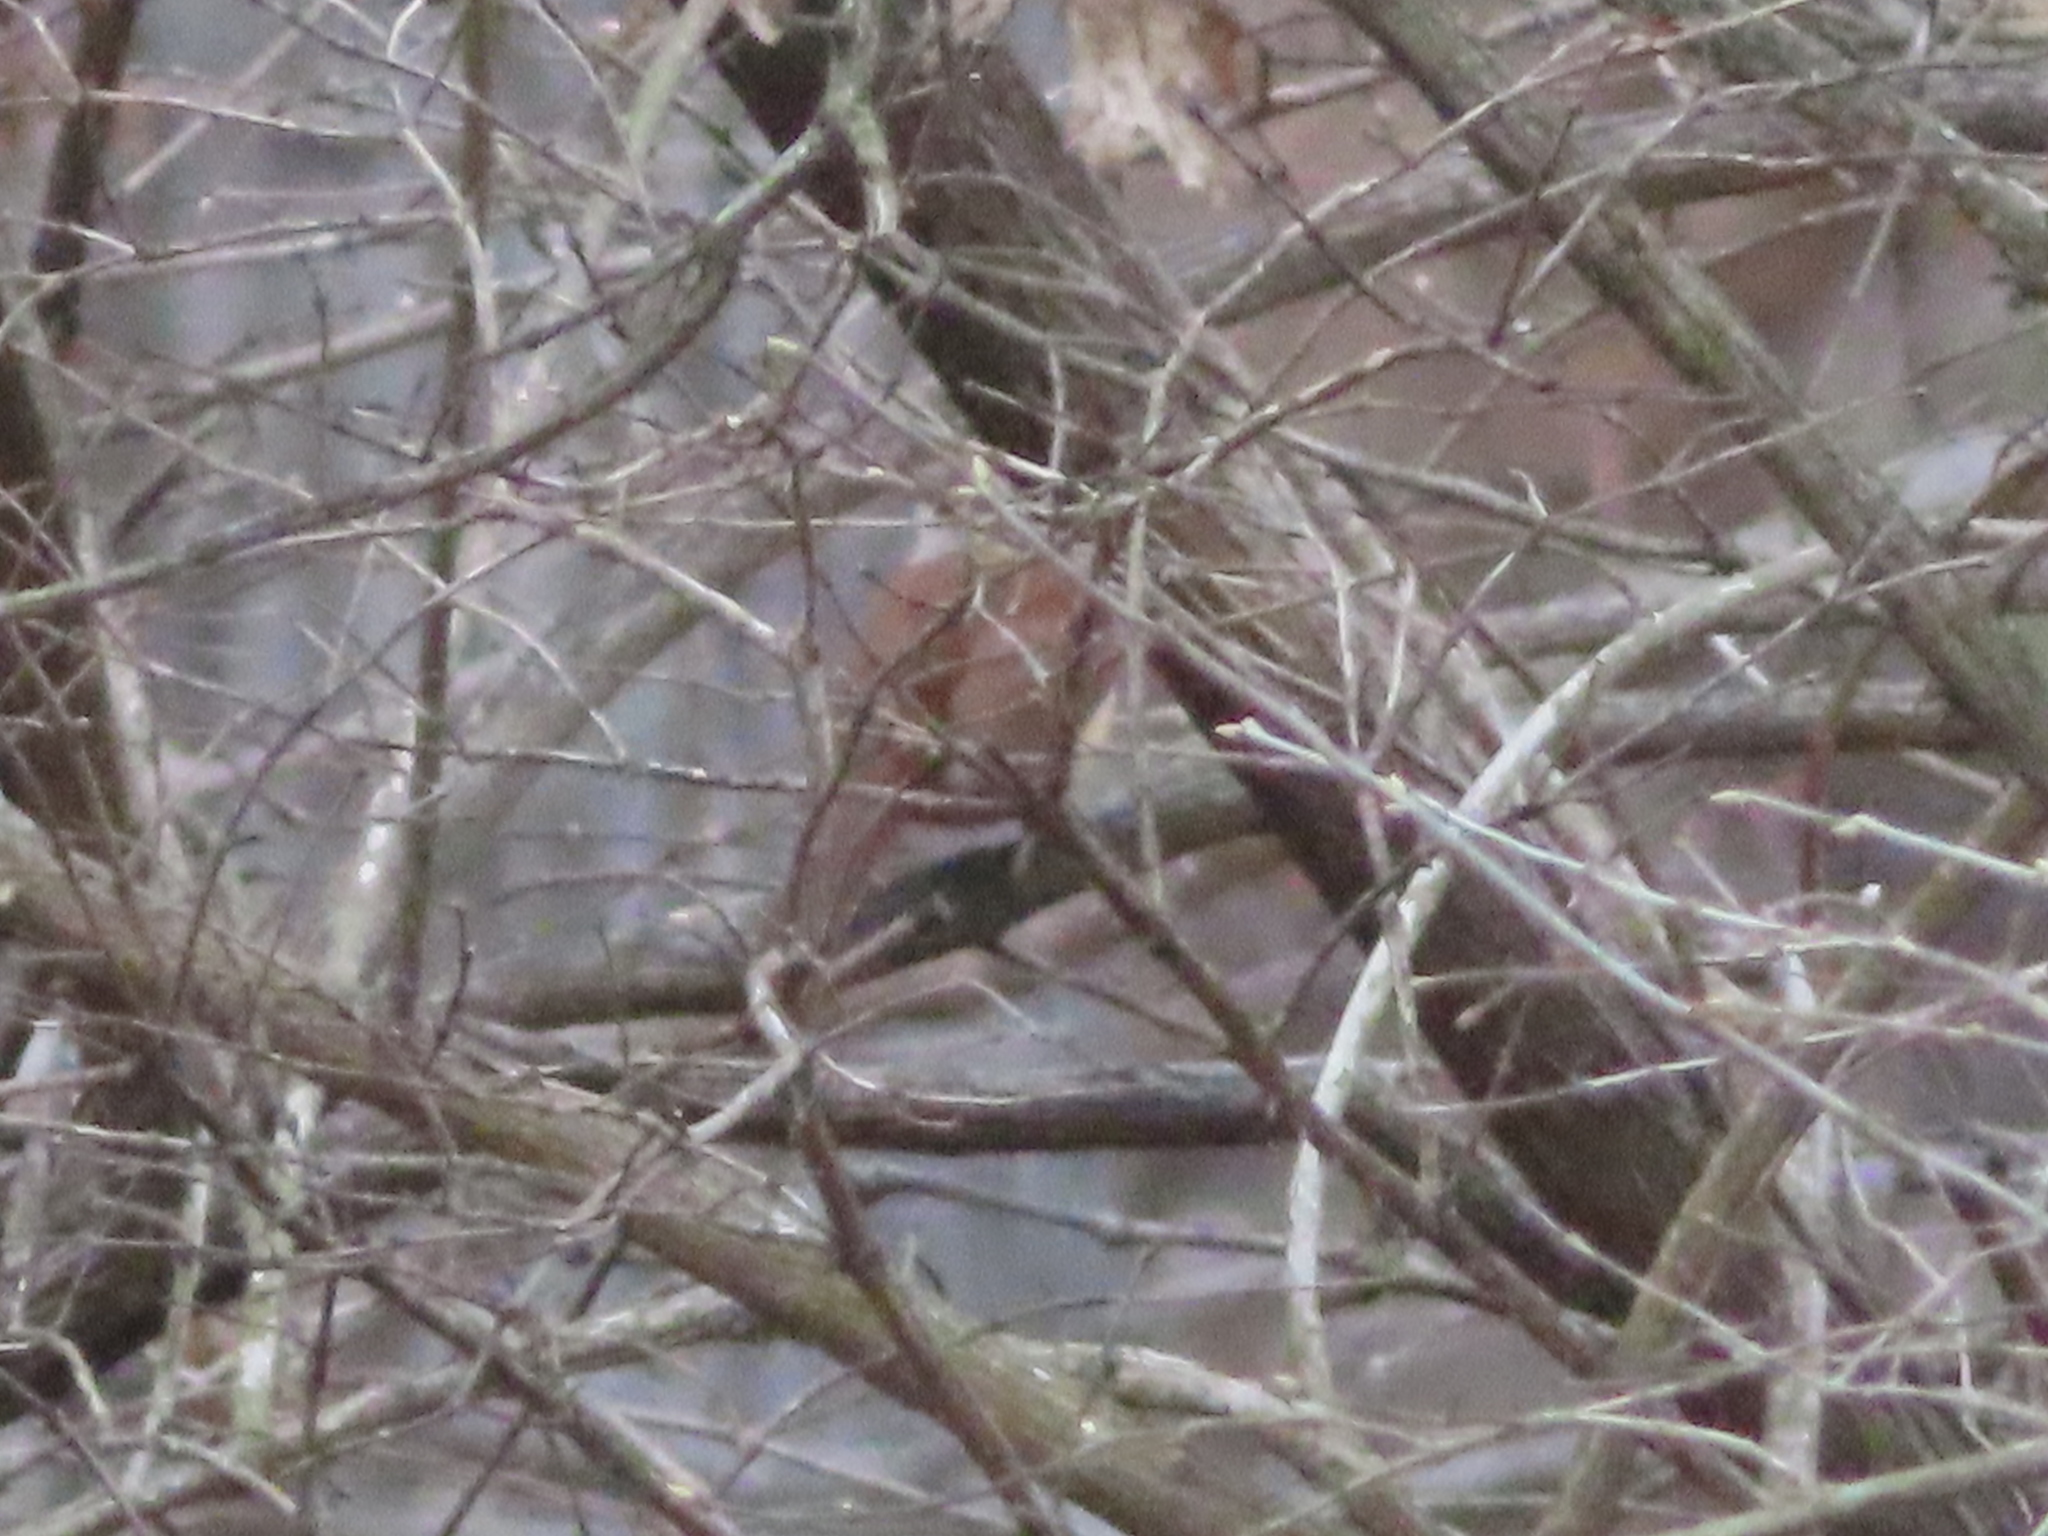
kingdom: Animalia
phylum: Chordata
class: Aves
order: Passeriformes
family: Troglodytidae
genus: Thryothorus
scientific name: Thryothorus ludovicianus
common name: Carolina wren
